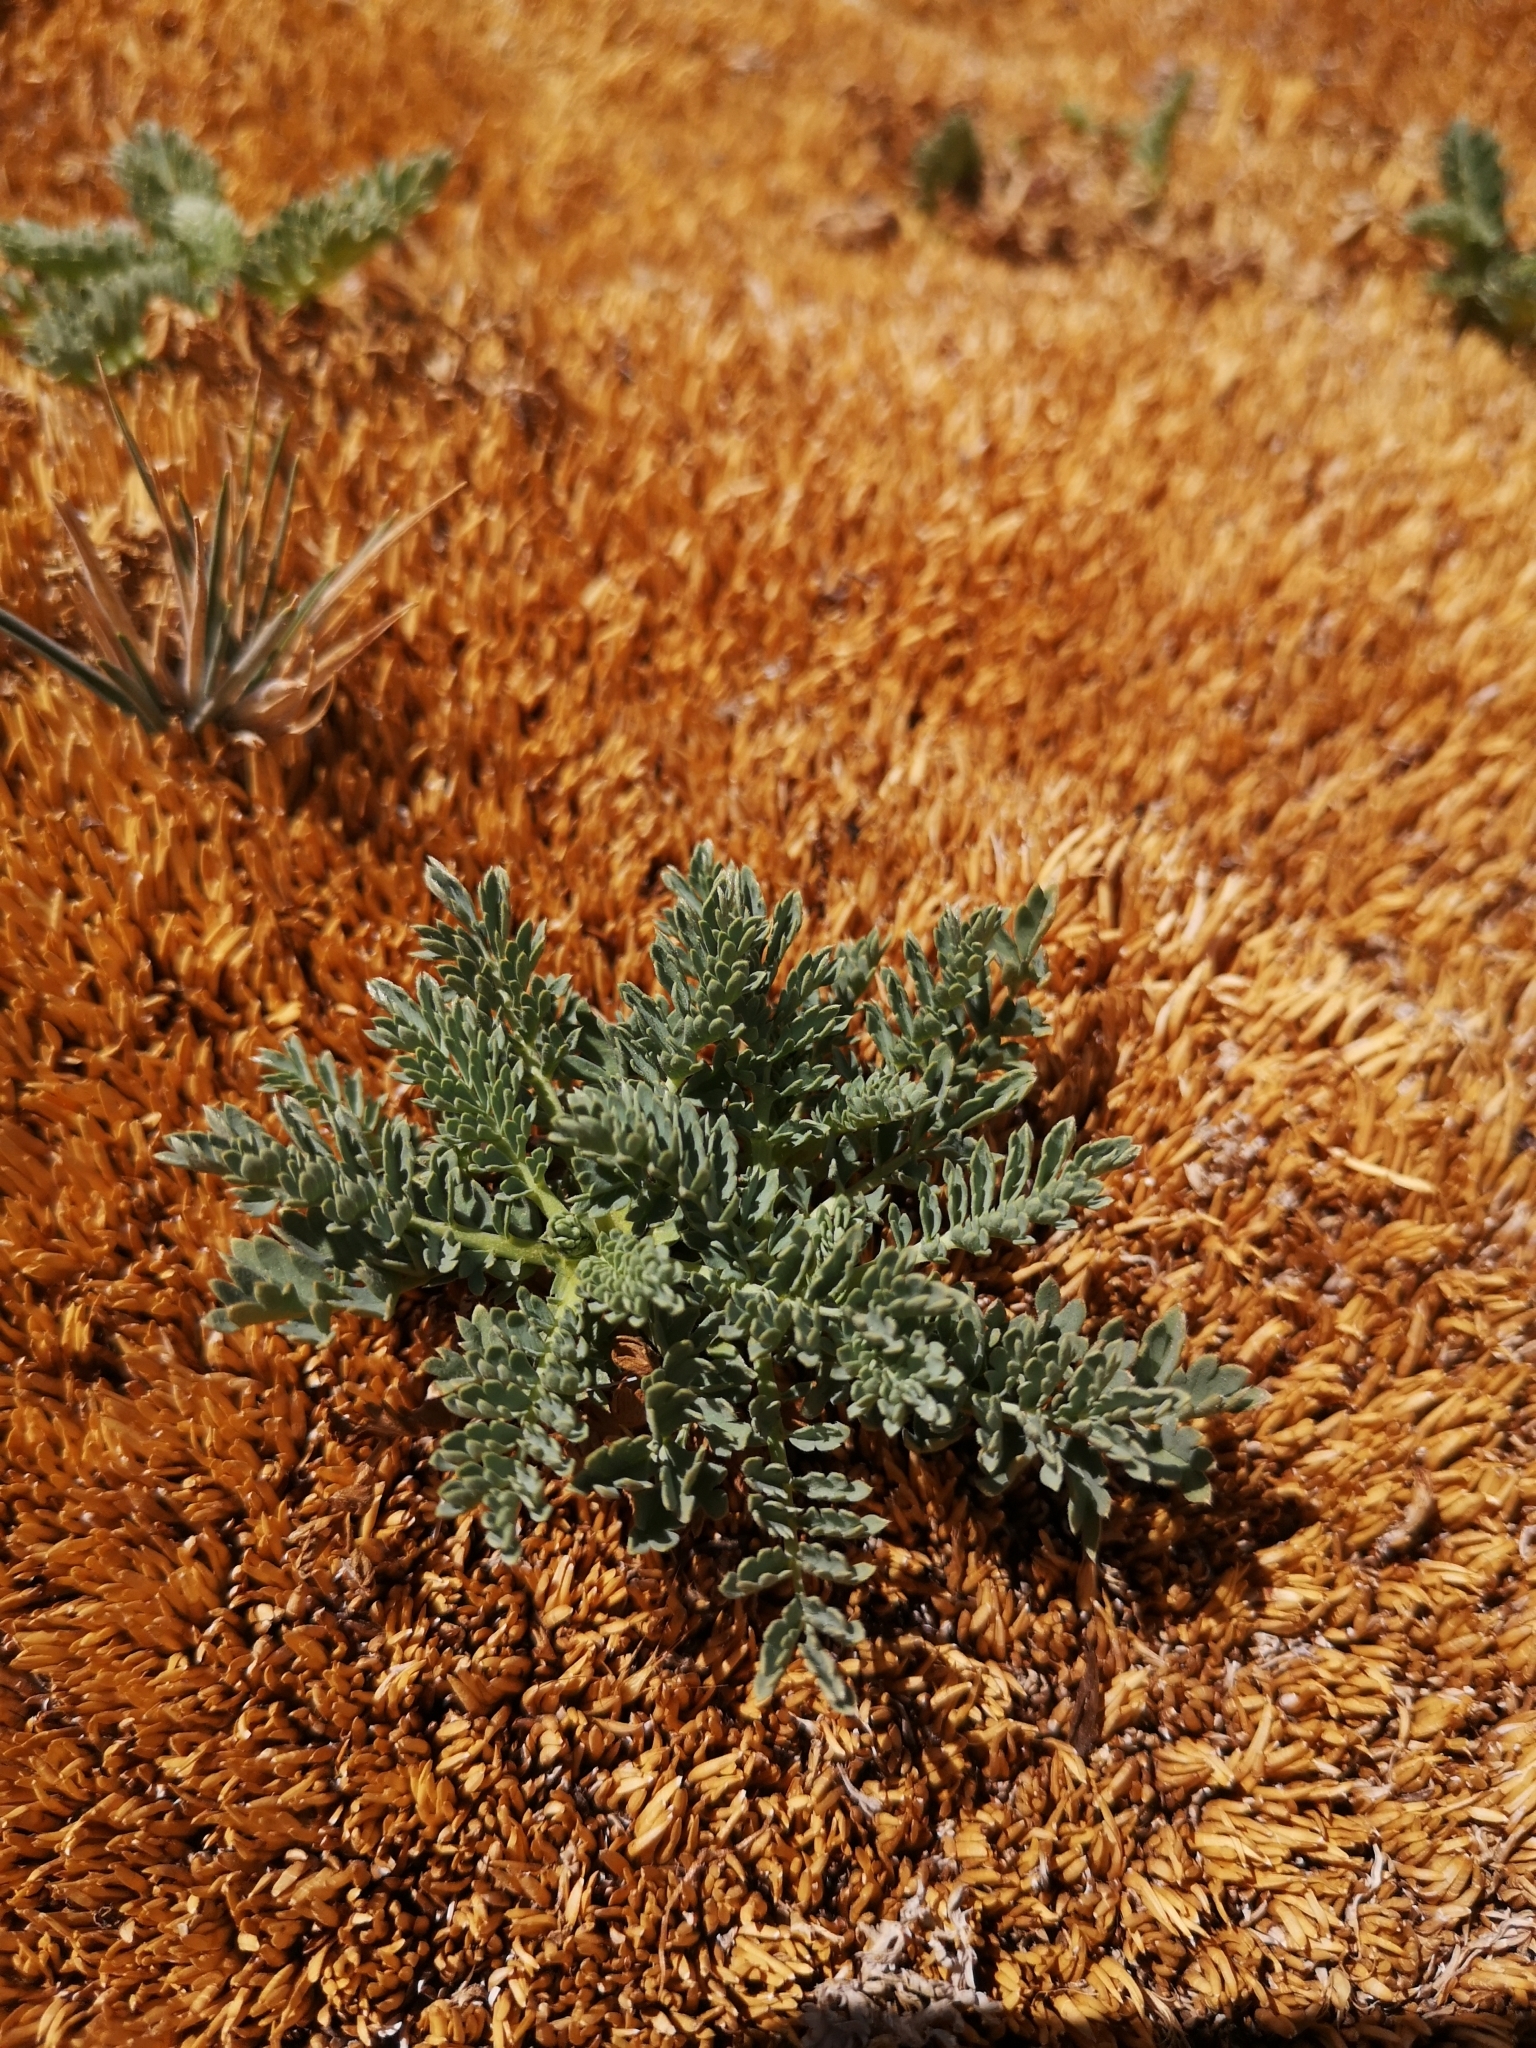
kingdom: Plantae
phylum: Tracheophyta
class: Magnoliopsida
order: Rosales
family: Rosaceae
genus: Acaena
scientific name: Acaena magellanica
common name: New zealand burr
